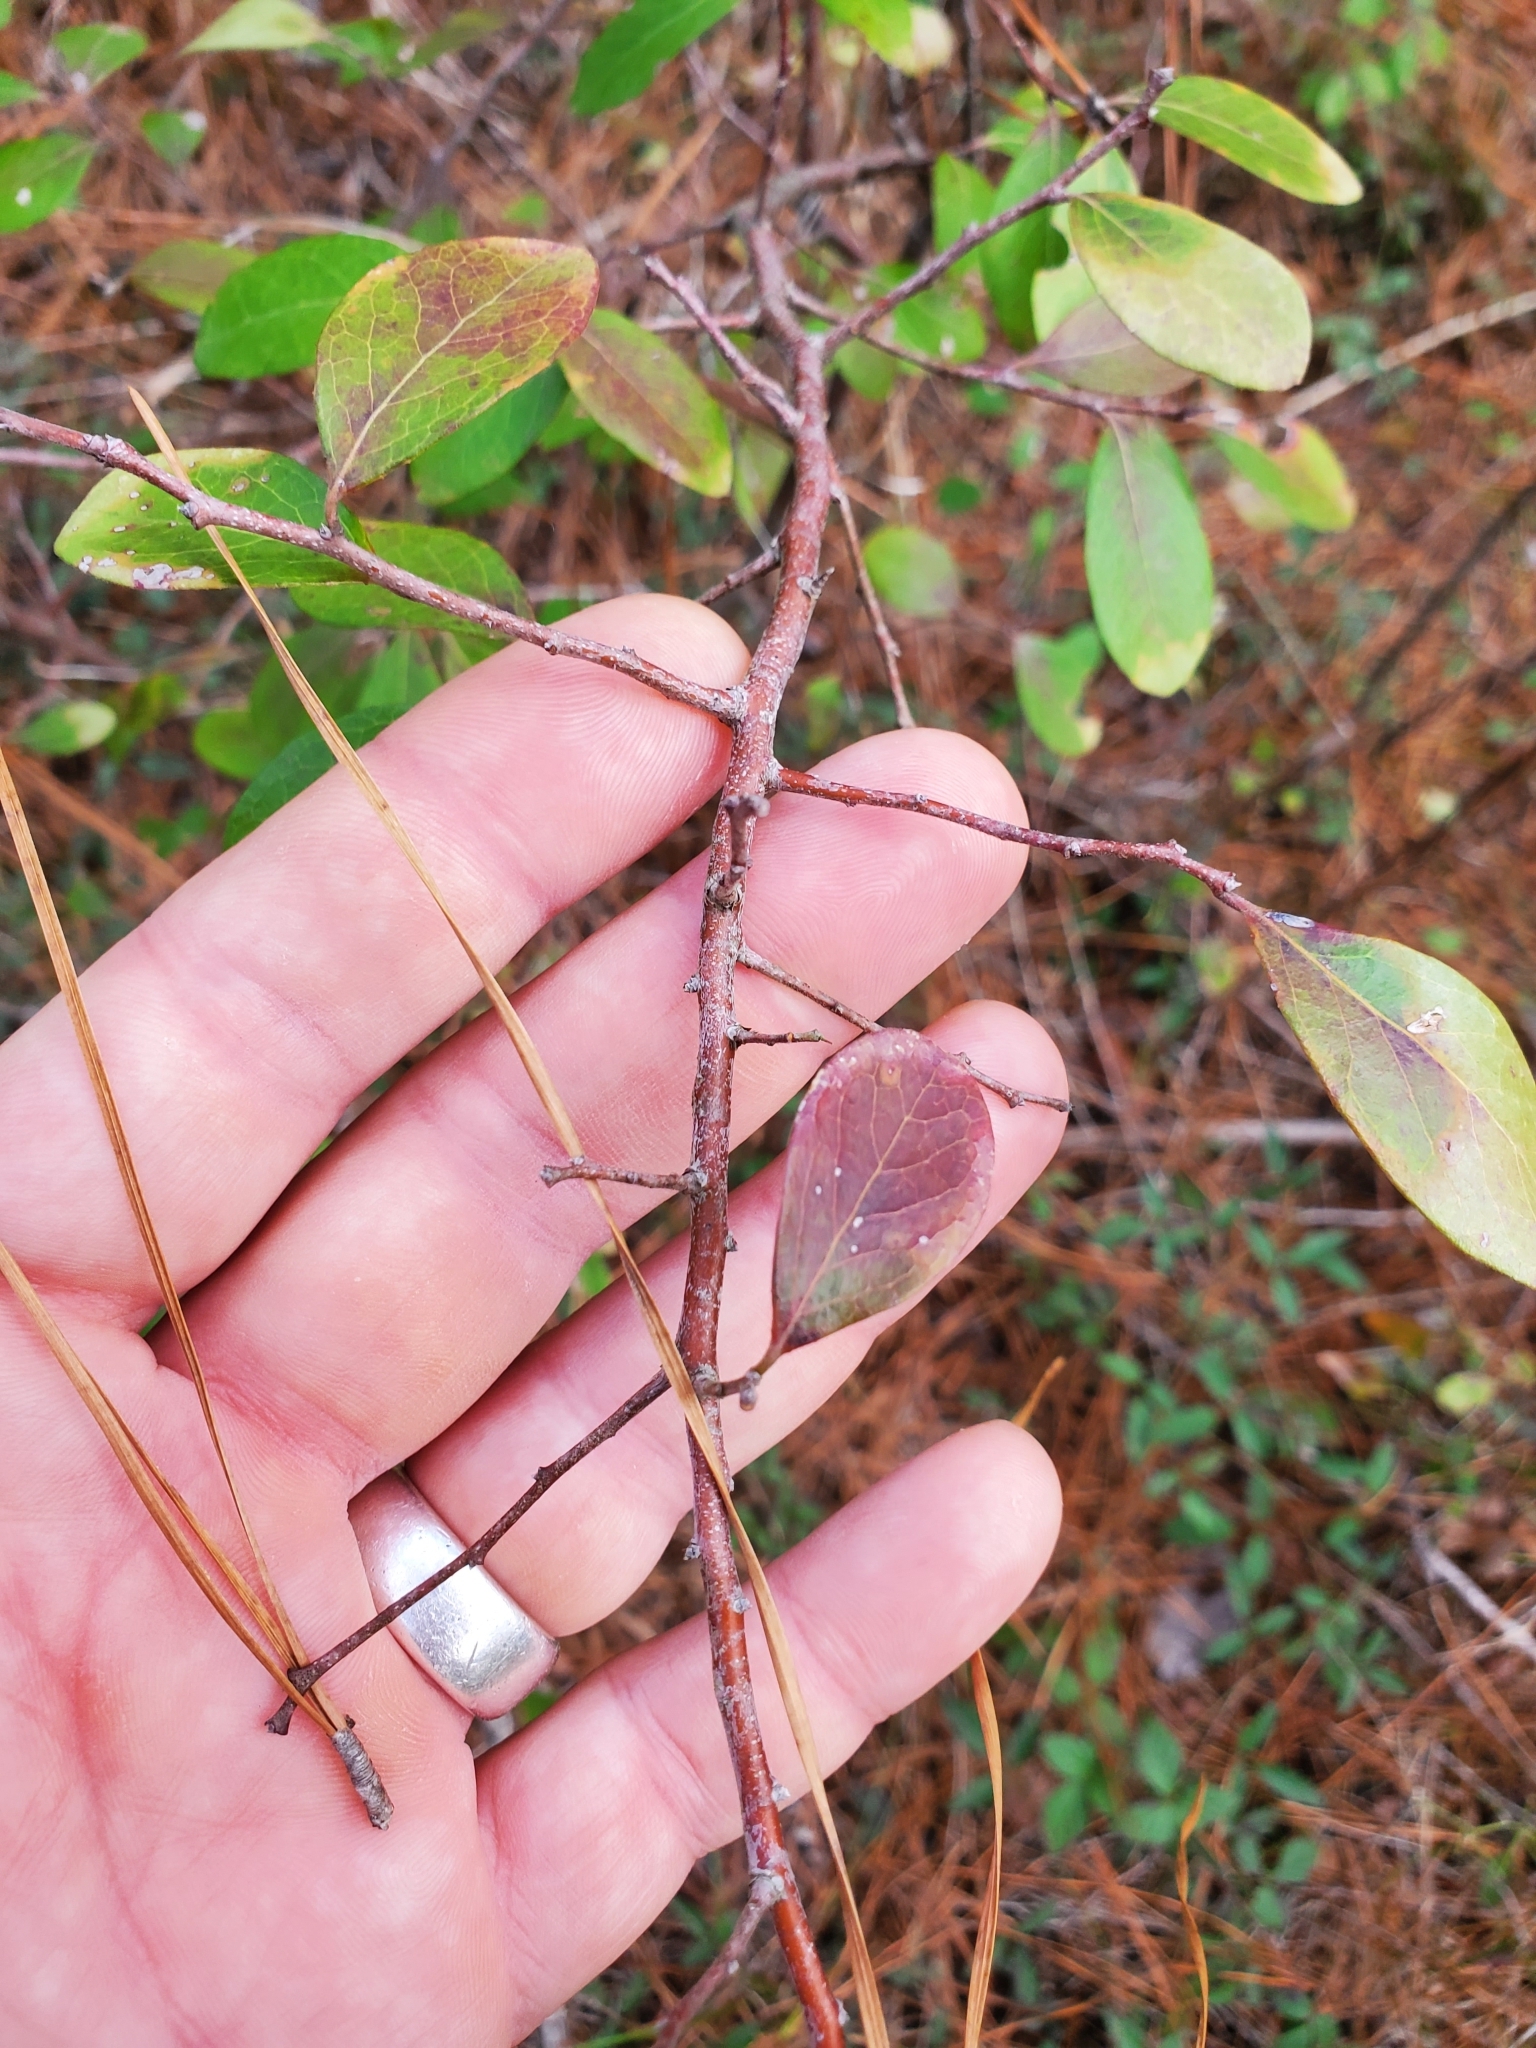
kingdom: Plantae
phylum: Tracheophyta
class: Magnoliopsida
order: Lamiales
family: Oleaceae
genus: Forestiera
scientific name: Forestiera ligustrina
